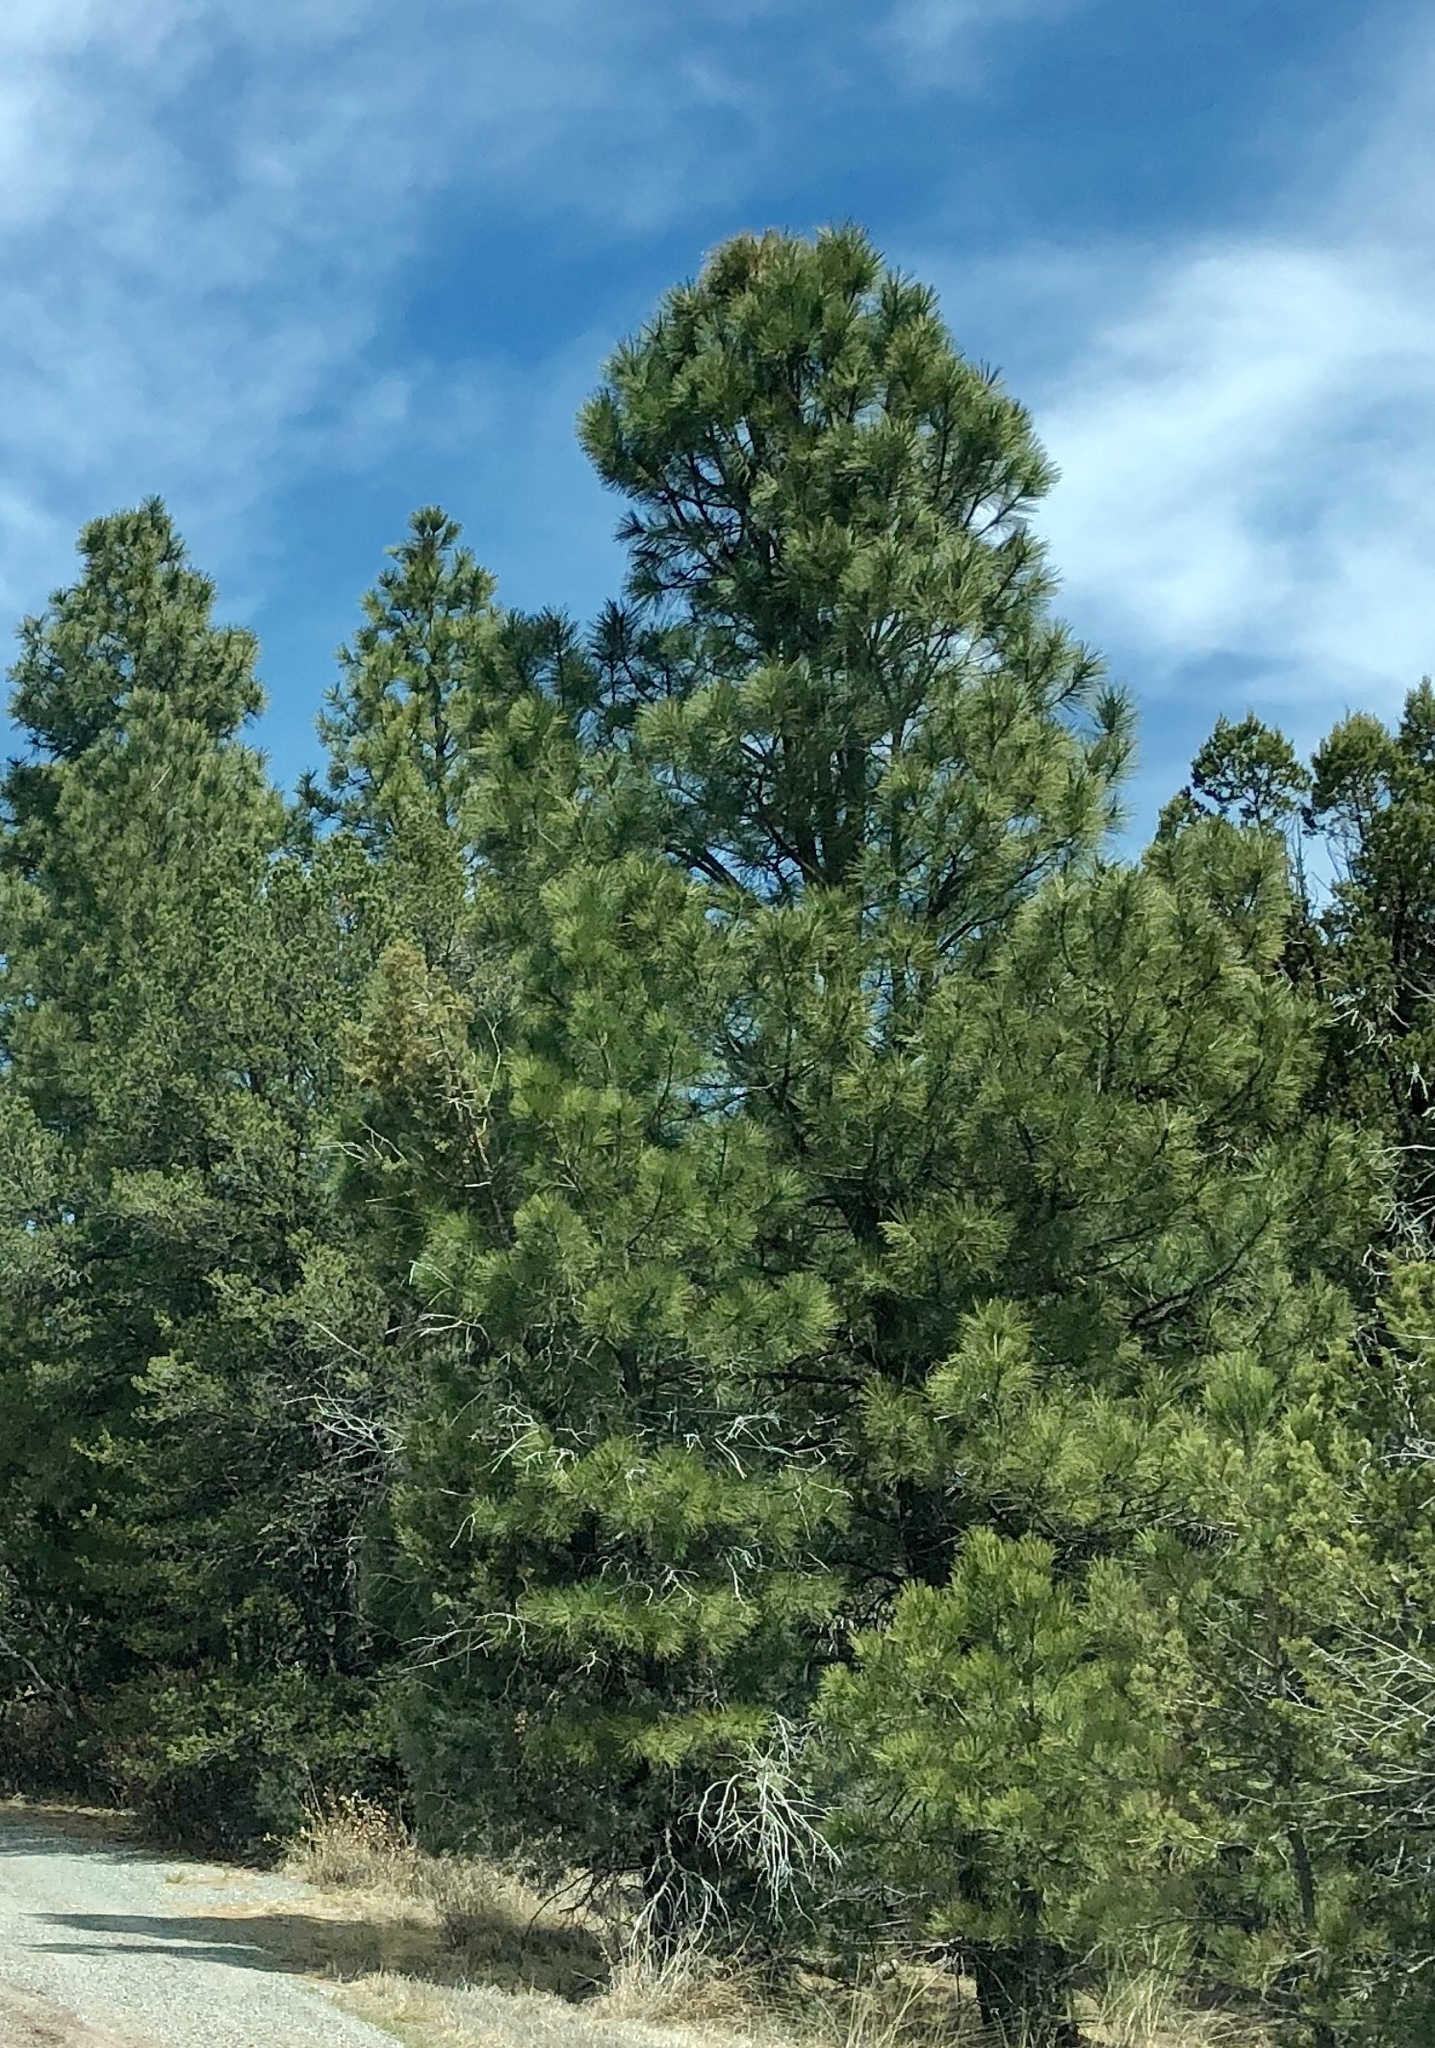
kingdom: Plantae
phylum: Tracheophyta
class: Pinopsida
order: Pinales
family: Pinaceae
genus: Pinus
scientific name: Pinus ponderosa
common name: Western yellow-pine
